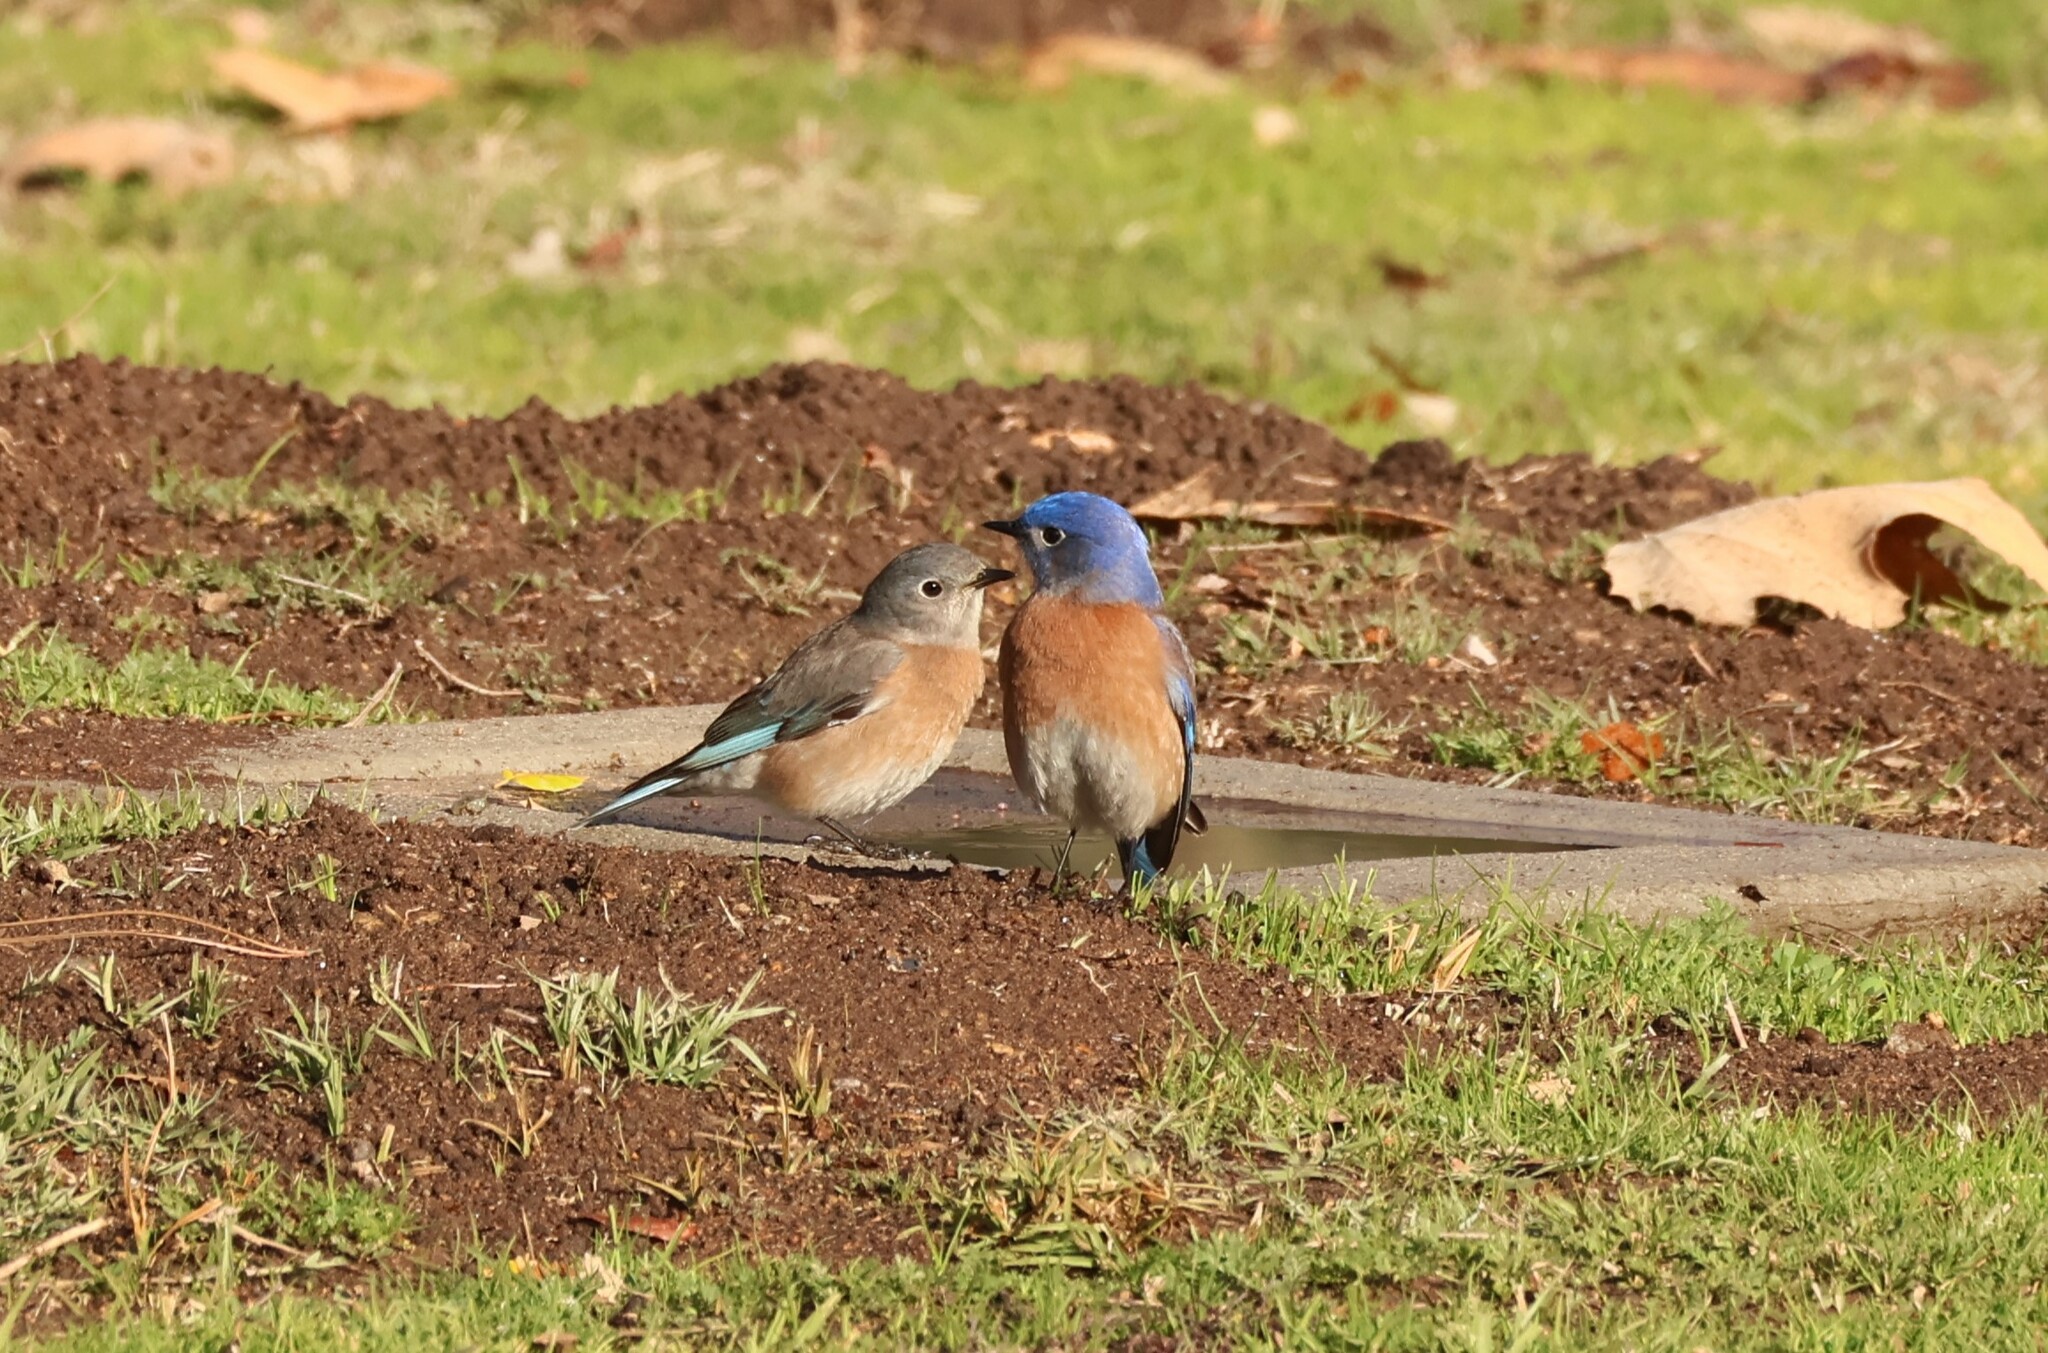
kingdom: Animalia
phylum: Chordata
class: Aves
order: Passeriformes
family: Turdidae
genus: Sialia
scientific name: Sialia mexicana
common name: Western bluebird
